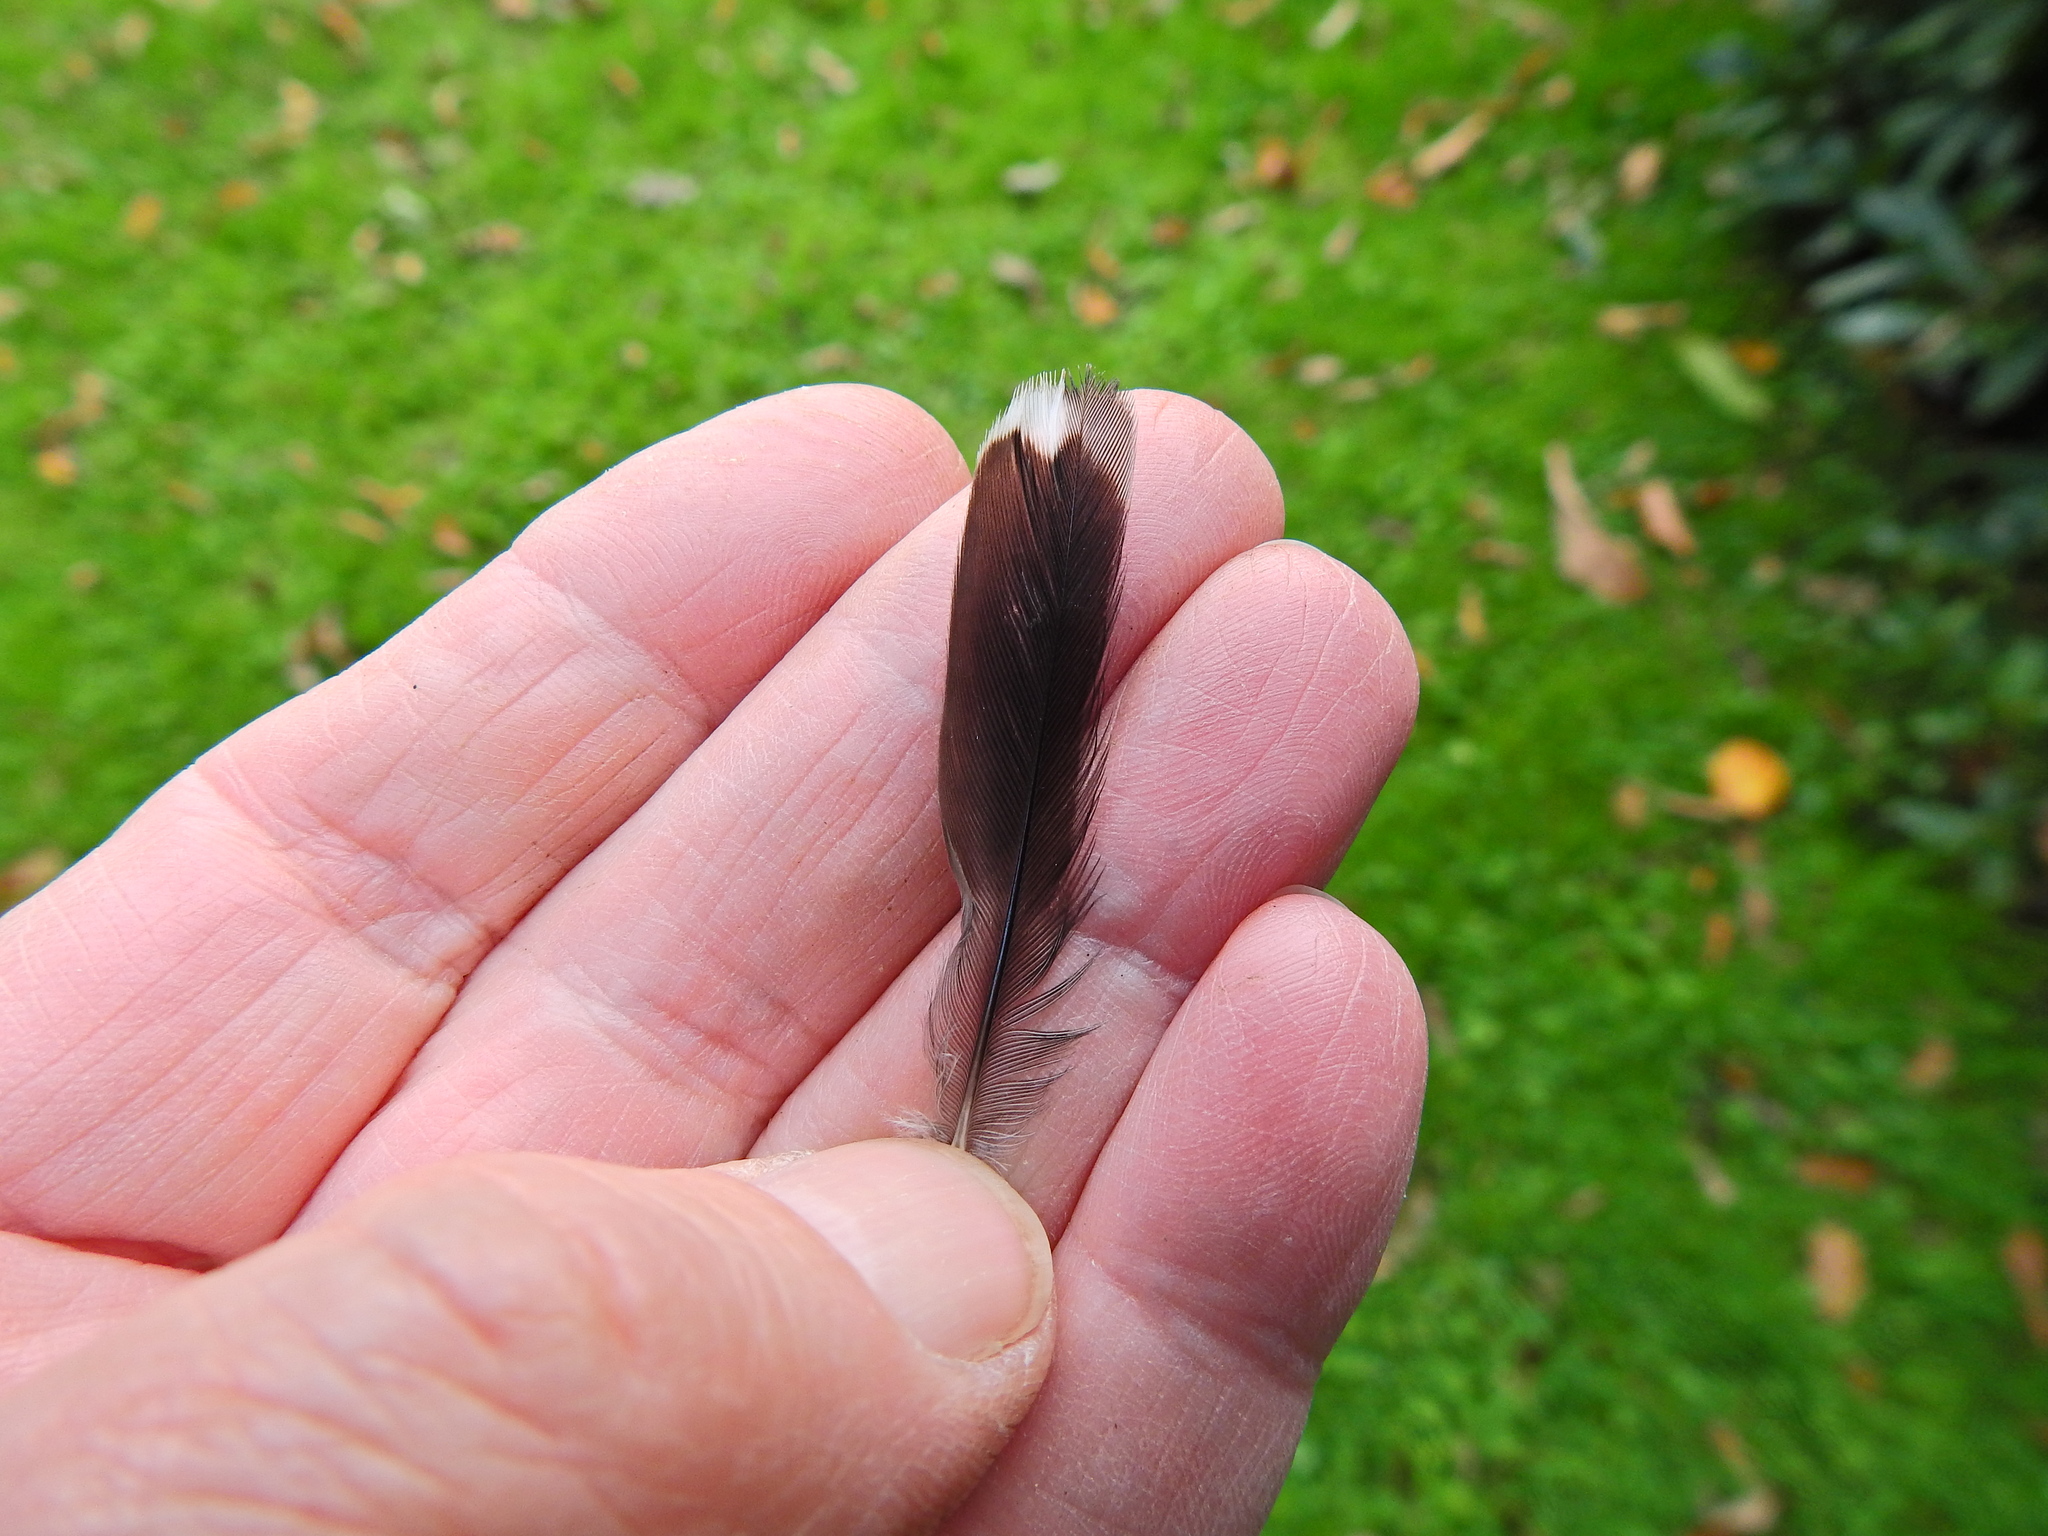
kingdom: Animalia
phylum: Chordata
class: Aves
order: Passeriformes
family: Sittidae
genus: Sitta
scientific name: Sitta europaea
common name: Eurasian nuthatch
